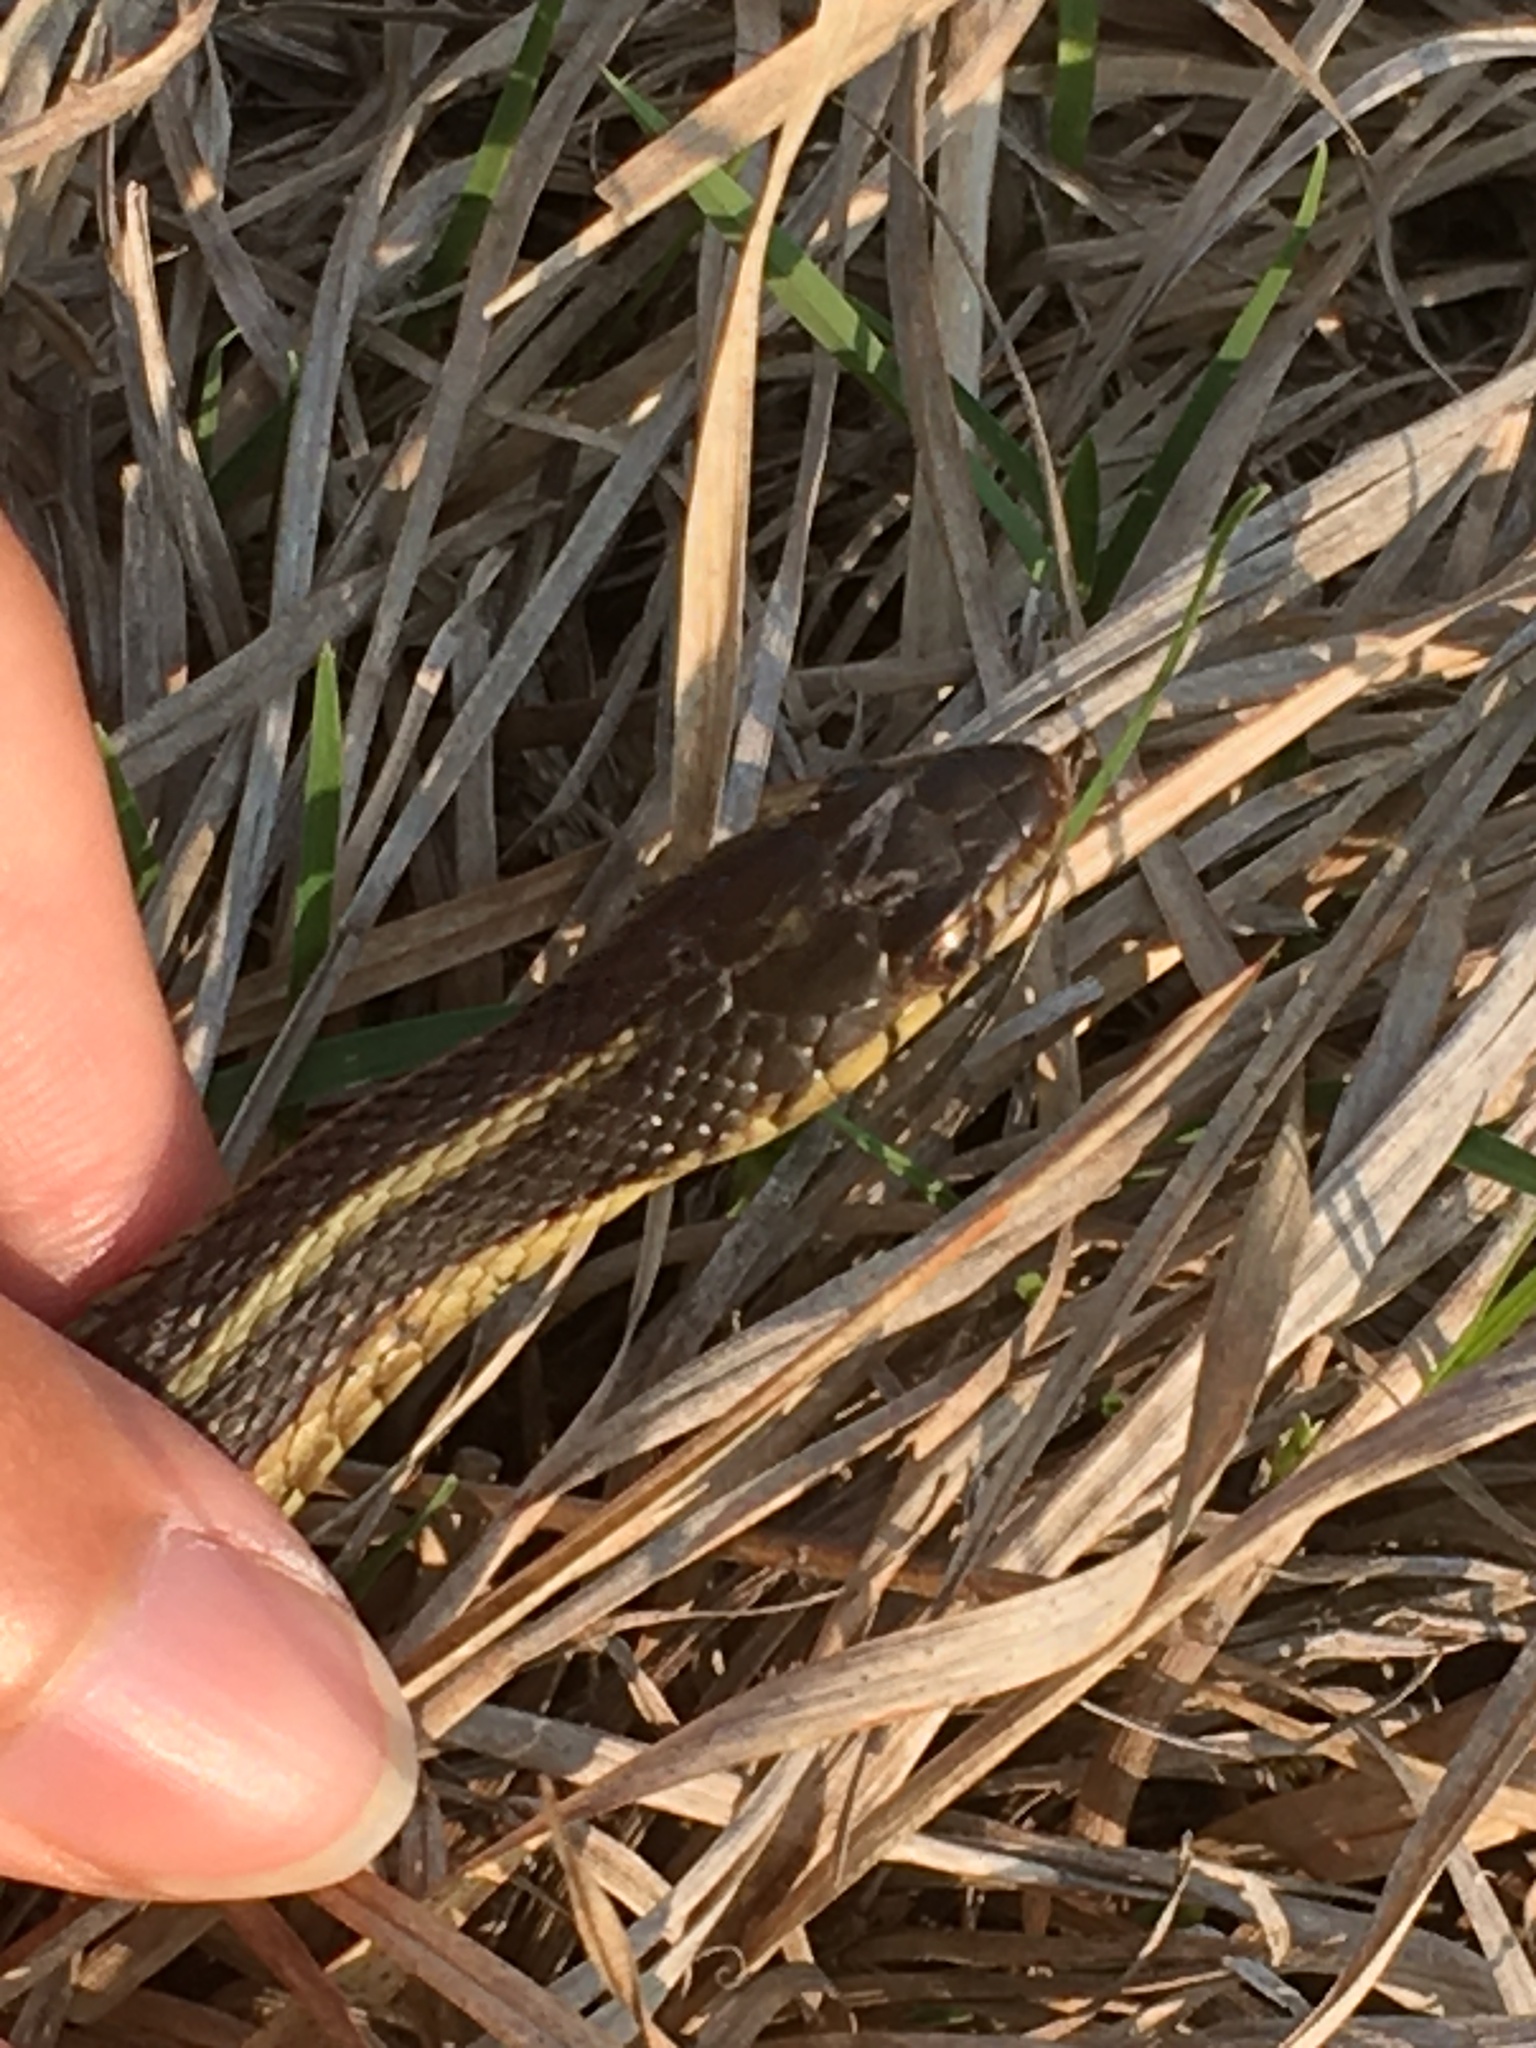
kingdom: Animalia
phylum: Chordata
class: Squamata
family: Colubridae
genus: Thamnophis
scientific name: Thamnophis sirtalis
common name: Common garter snake
